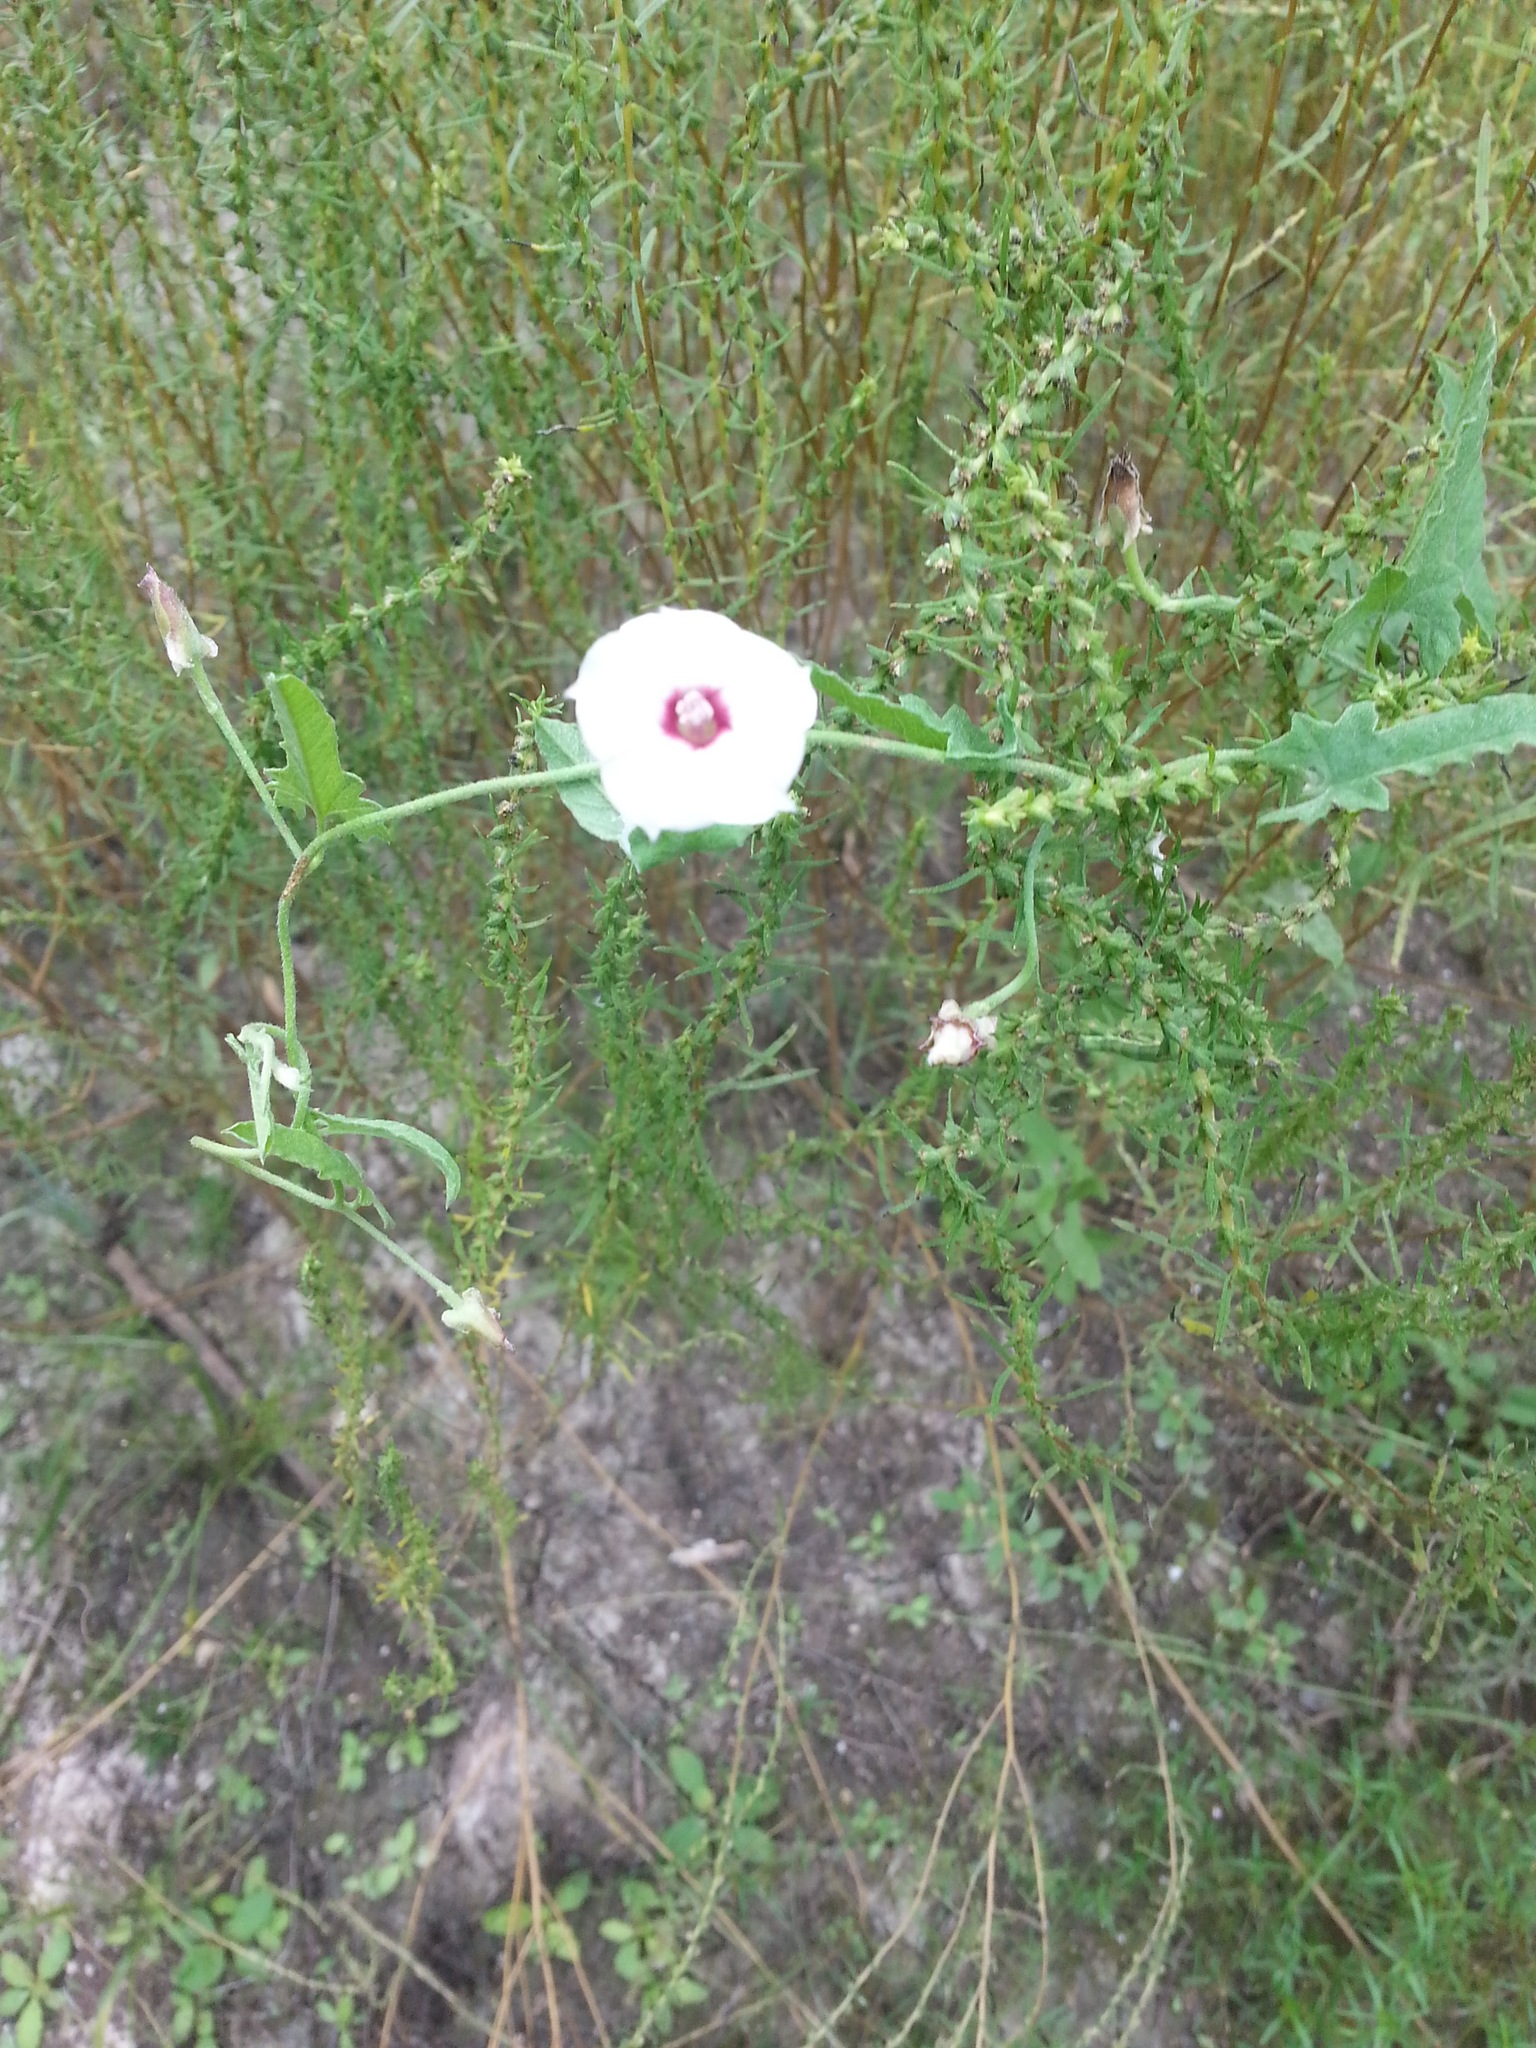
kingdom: Plantae
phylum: Tracheophyta
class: Magnoliopsida
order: Solanales
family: Convolvulaceae
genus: Convolvulus
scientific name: Convolvulus equitans
